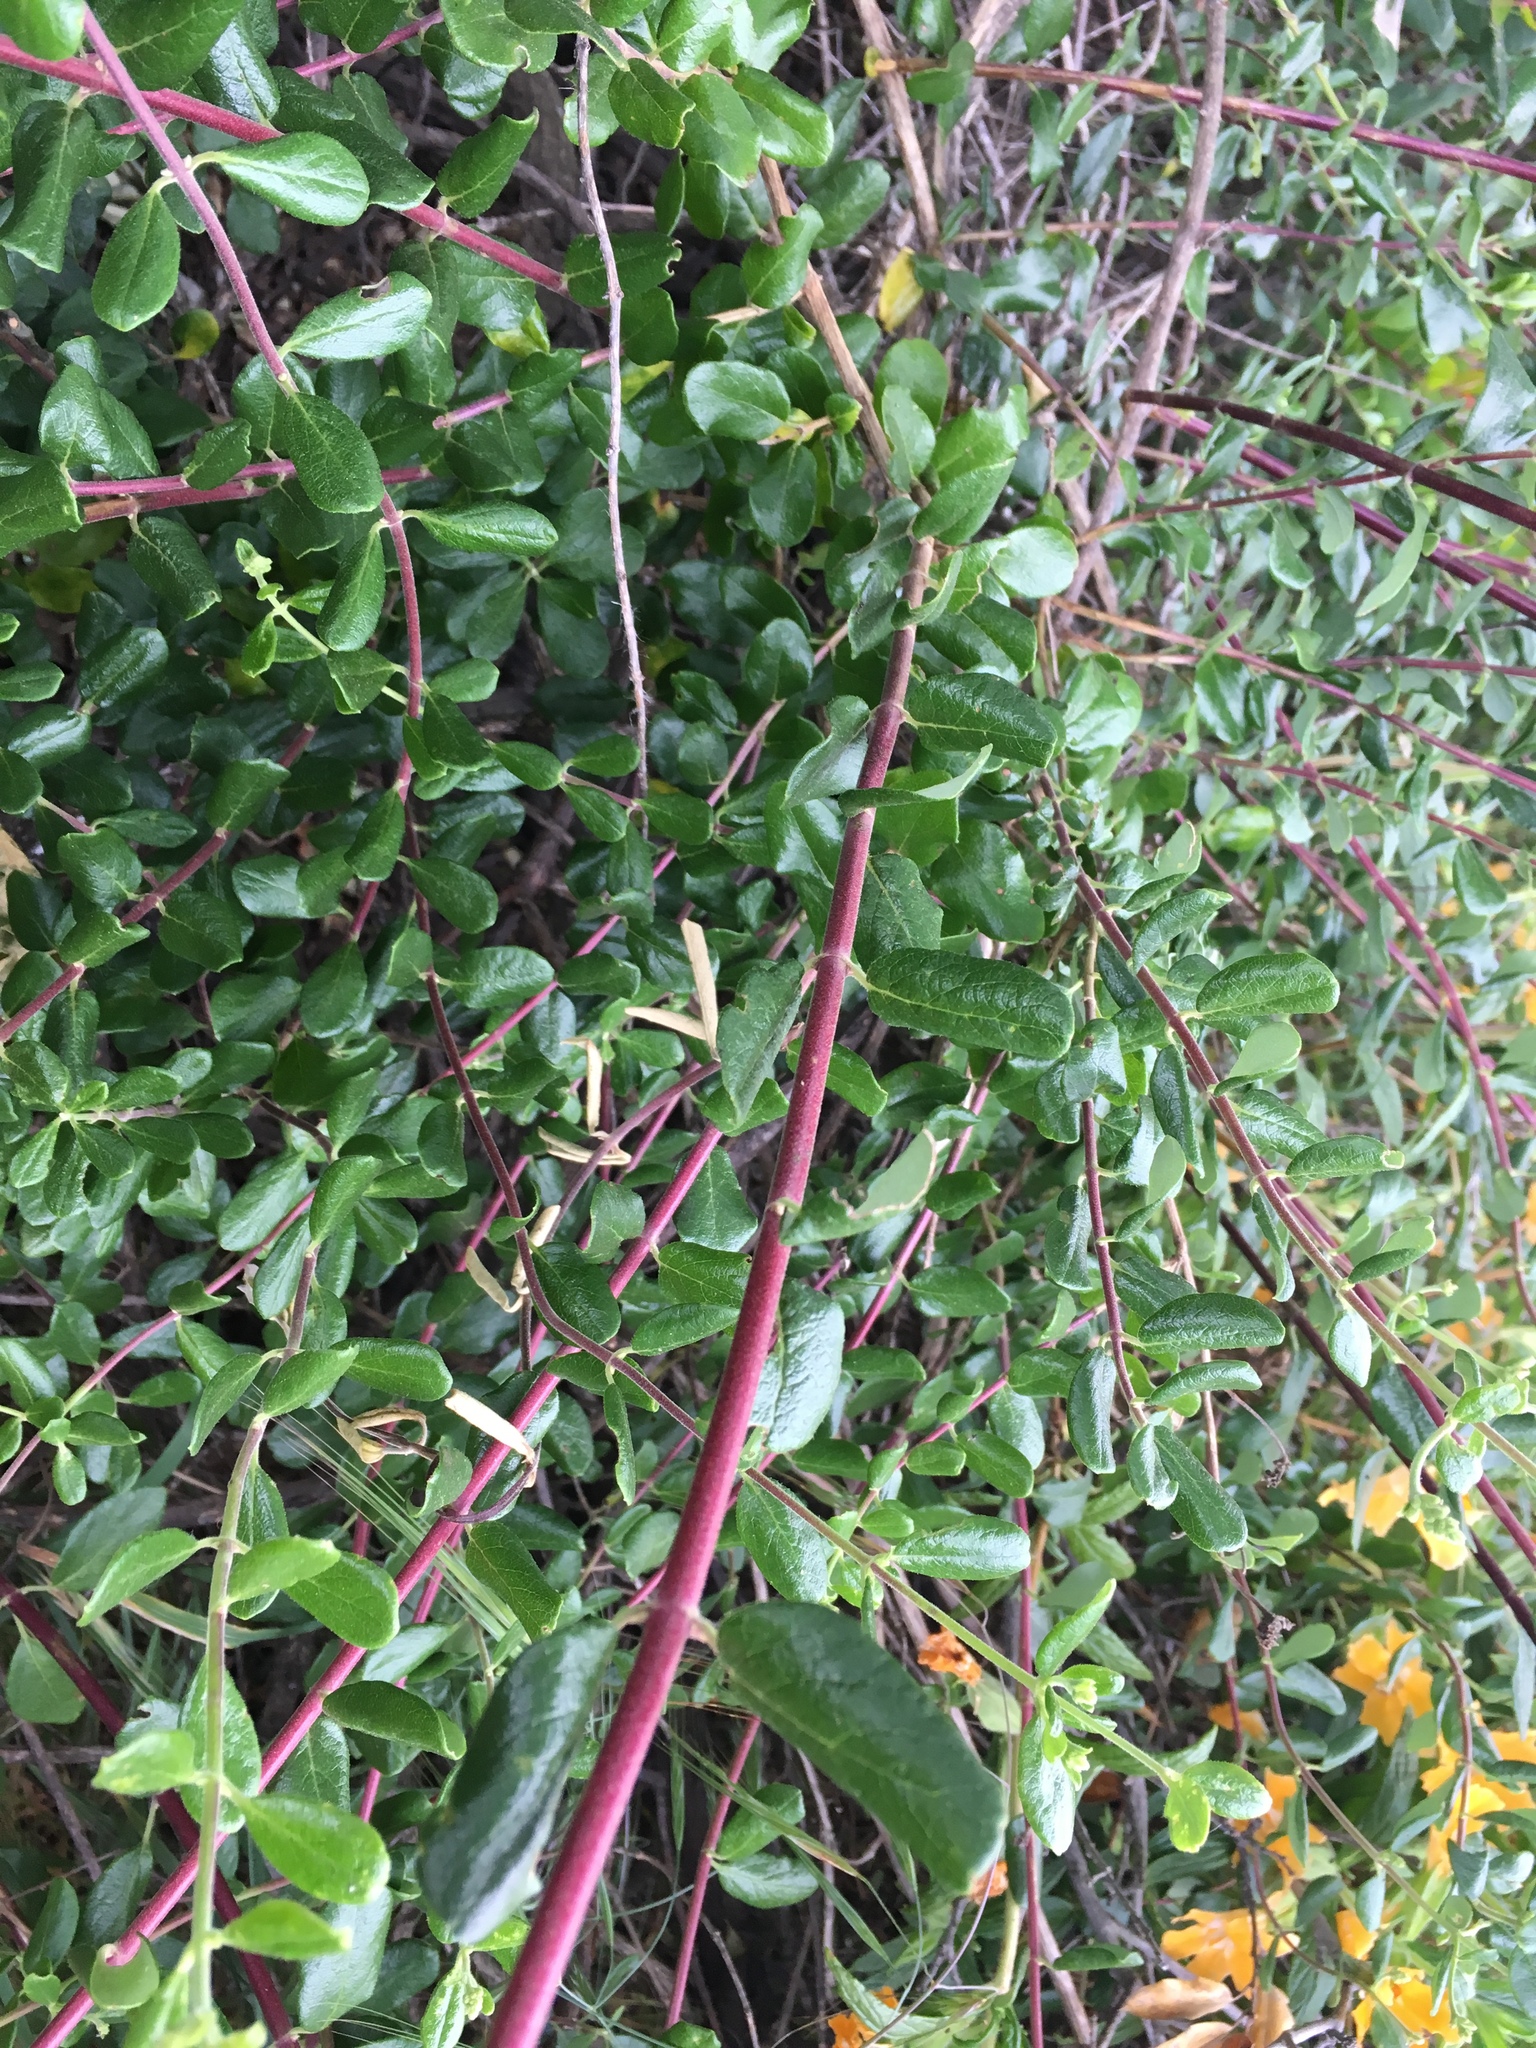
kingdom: Plantae
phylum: Tracheophyta
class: Magnoliopsida
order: Dipsacales
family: Caprifoliaceae
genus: Lonicera
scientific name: Lonicera subspicata
